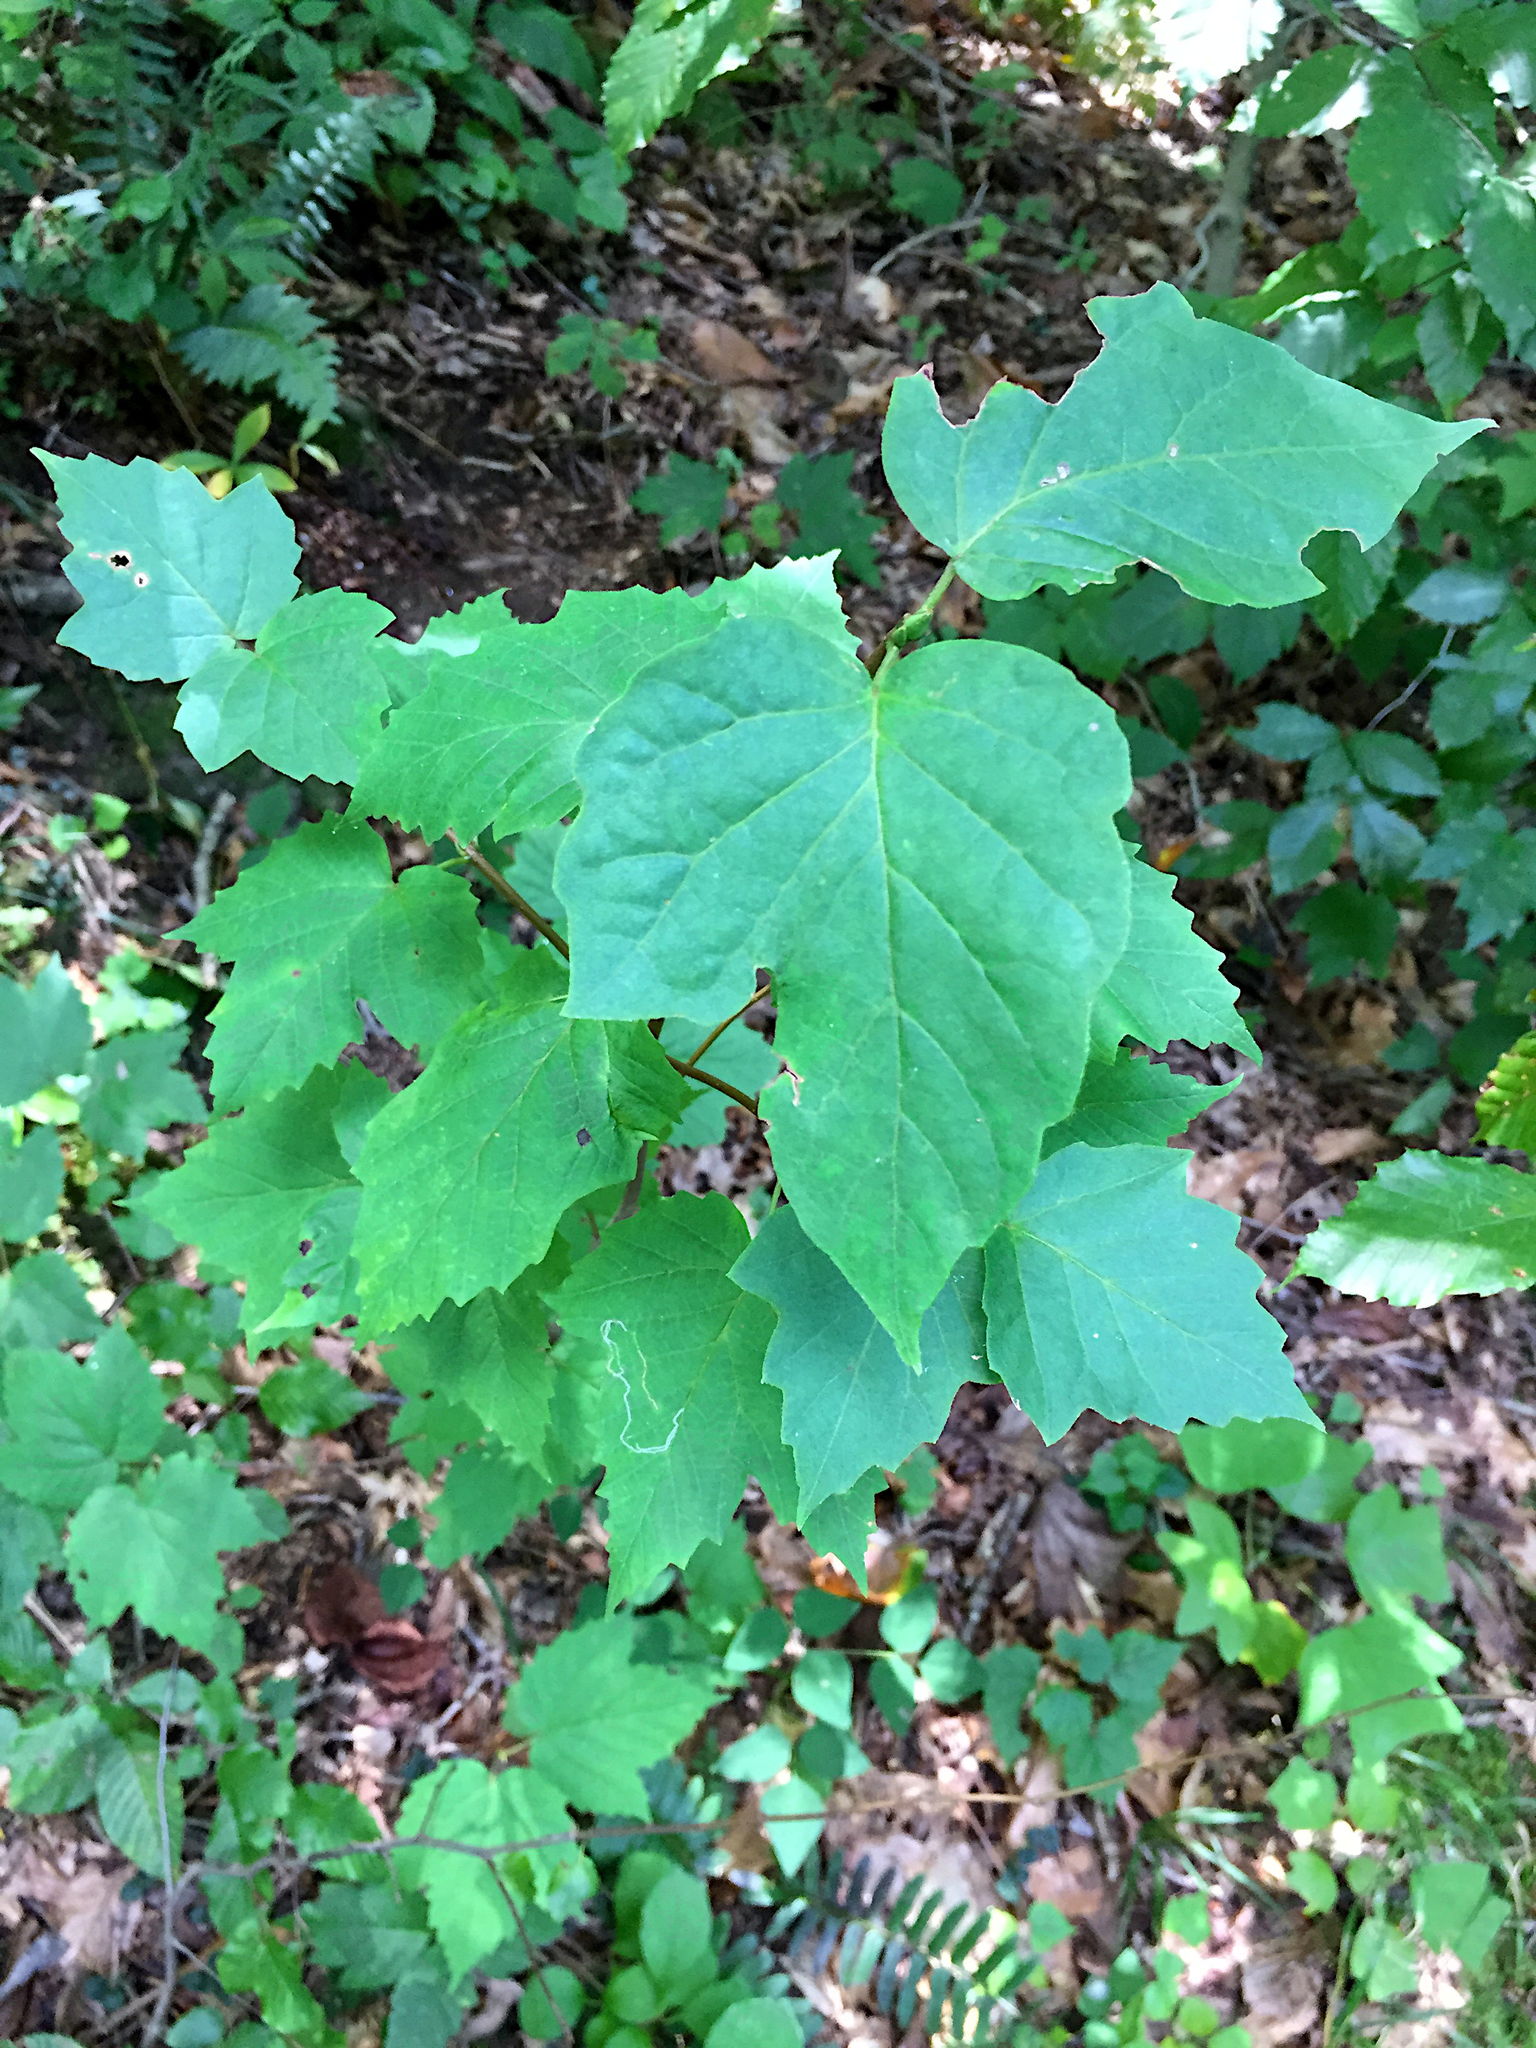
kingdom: Plantae
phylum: Tracheophyta
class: Magnoliopsida
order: Dipsacales
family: Viburnaceae
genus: Viburnum
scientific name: Viburnum acerifolium
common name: Dockmackie
